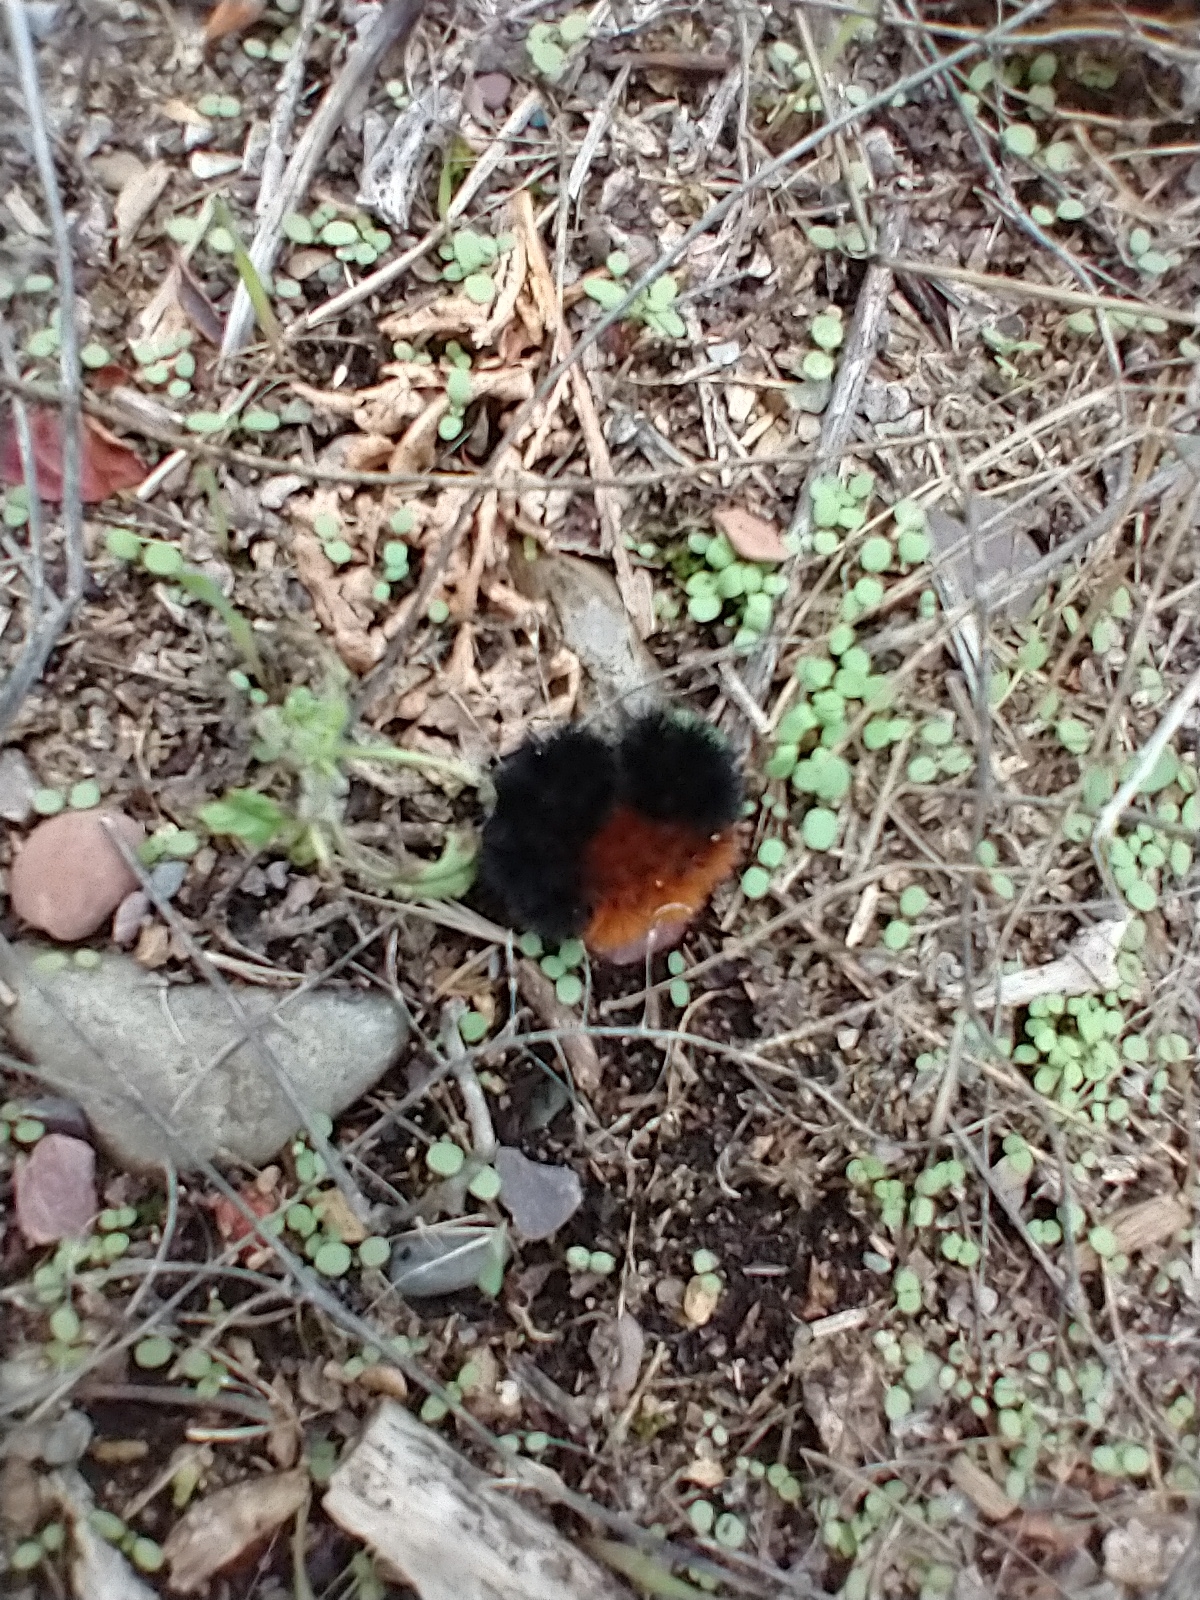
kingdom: Animalia
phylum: Arthropoda
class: Insecta
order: Lepidoptera
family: Erebidae
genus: Pyrrharctia
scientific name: Pyrrharctia isabella
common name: Isabella tiger moth
